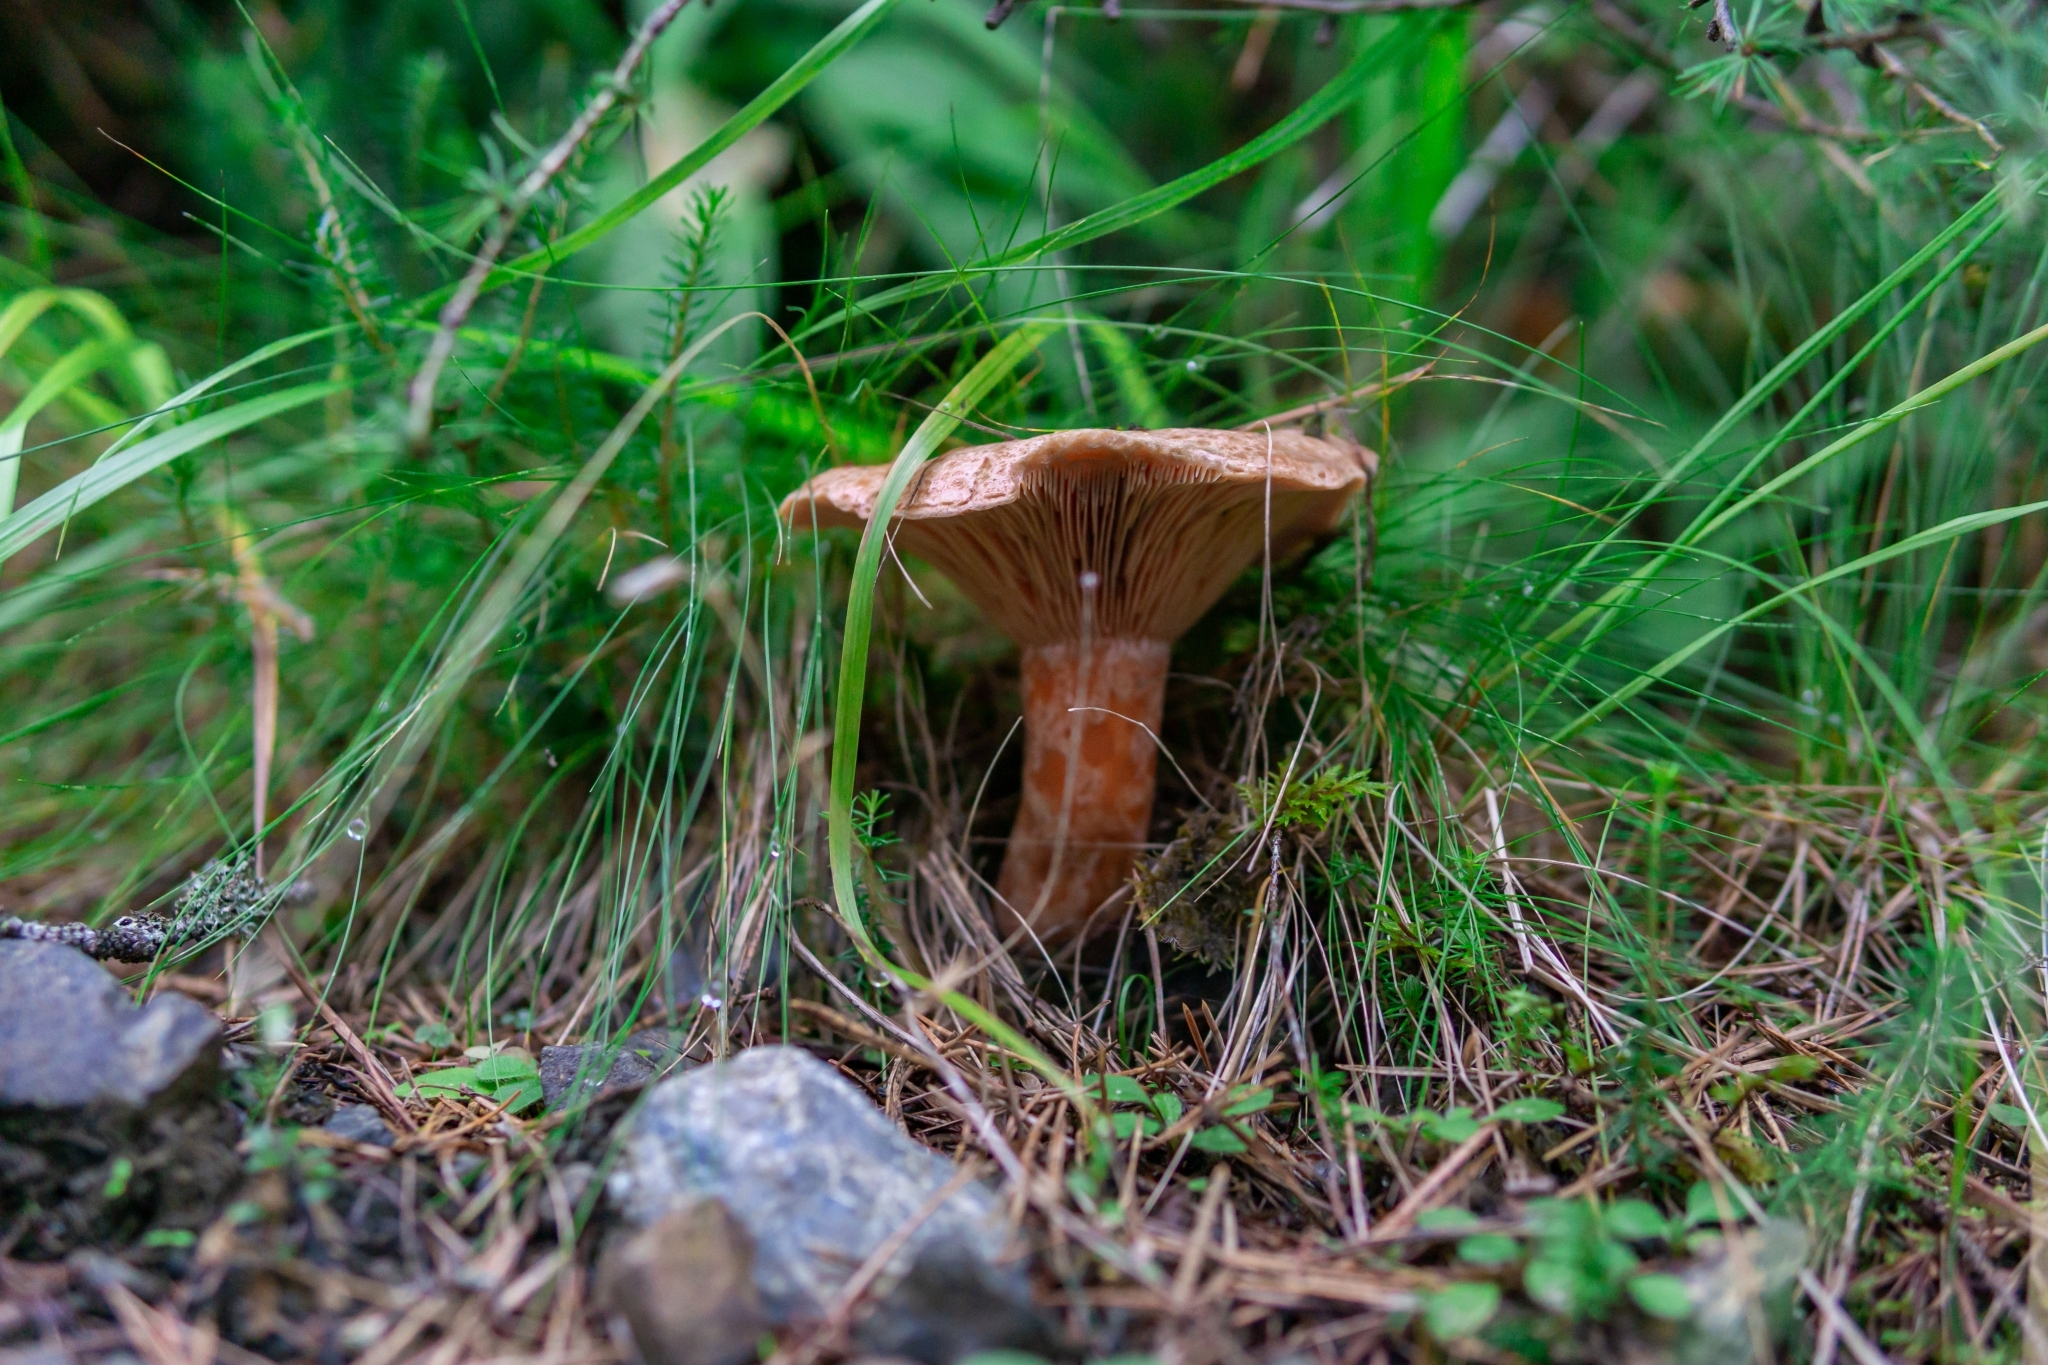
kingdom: Fungi
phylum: Basidiomycota
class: Agaricomycetes
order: Russulales
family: Russulaceae
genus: Lactarius
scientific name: Lactarius deliciosus
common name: Saffron milk-cap
